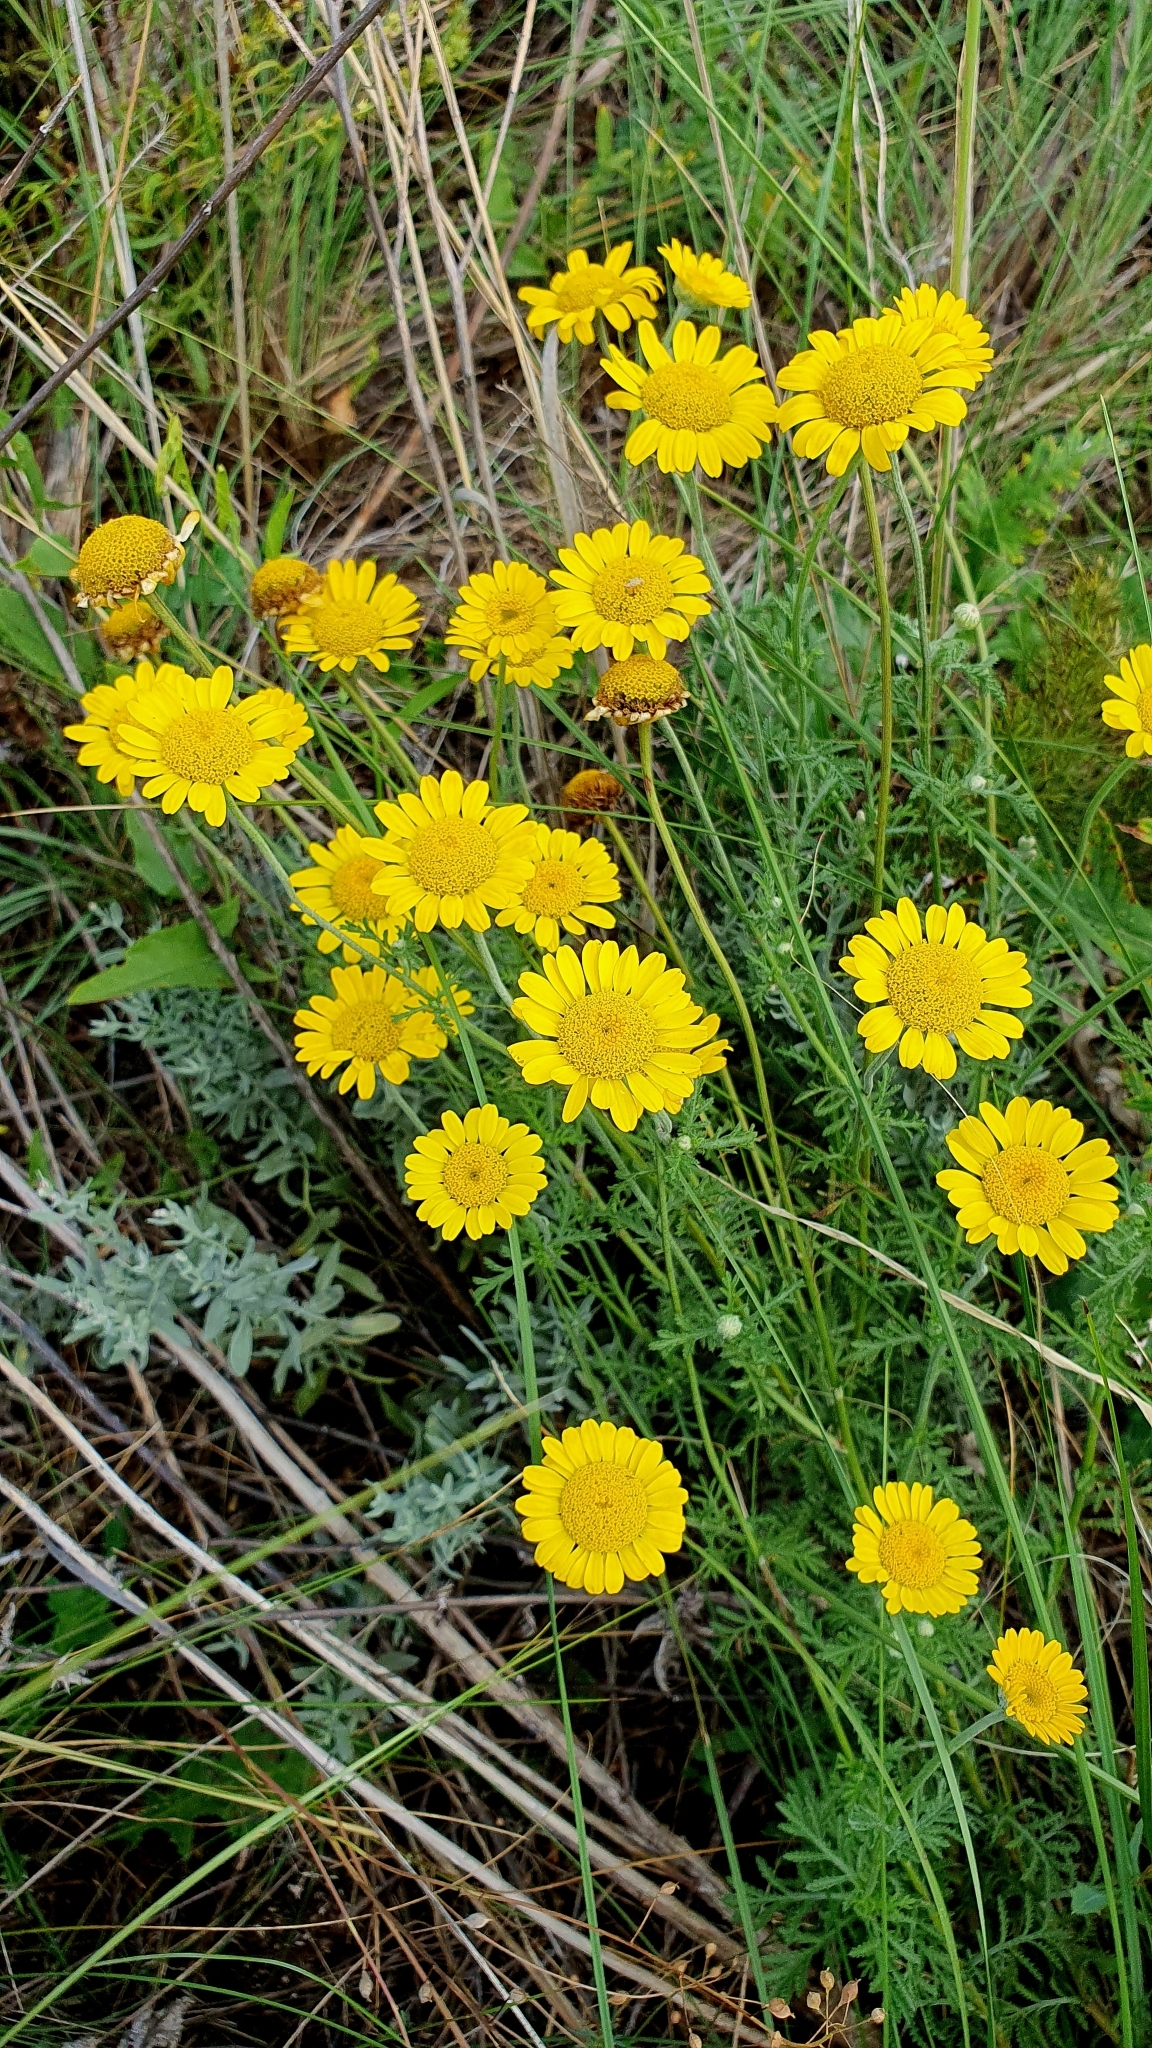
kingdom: Plantae
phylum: Tracheophyta
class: Magnoliopsida
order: Asterales
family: Asteraceae
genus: Cota
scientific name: Cota tinctoria
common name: Golden chamomile
